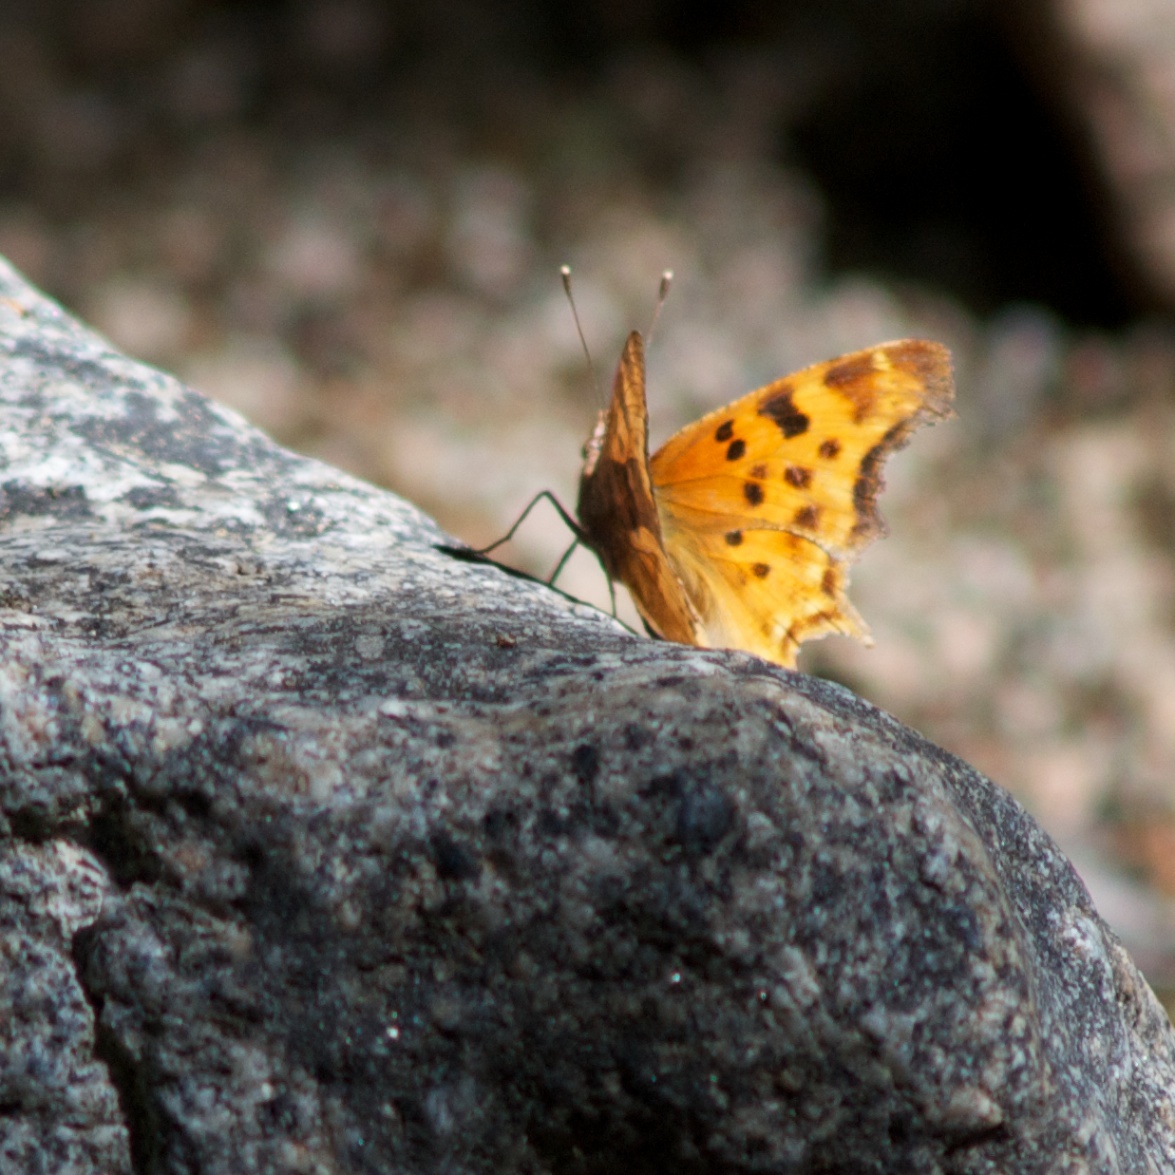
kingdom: Animalia
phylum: Arthropoda
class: Insecta
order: Lepidoptera
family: Nymphalidae
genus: Polygonia
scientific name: Polygonia satyrus
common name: Satyr angle wing
